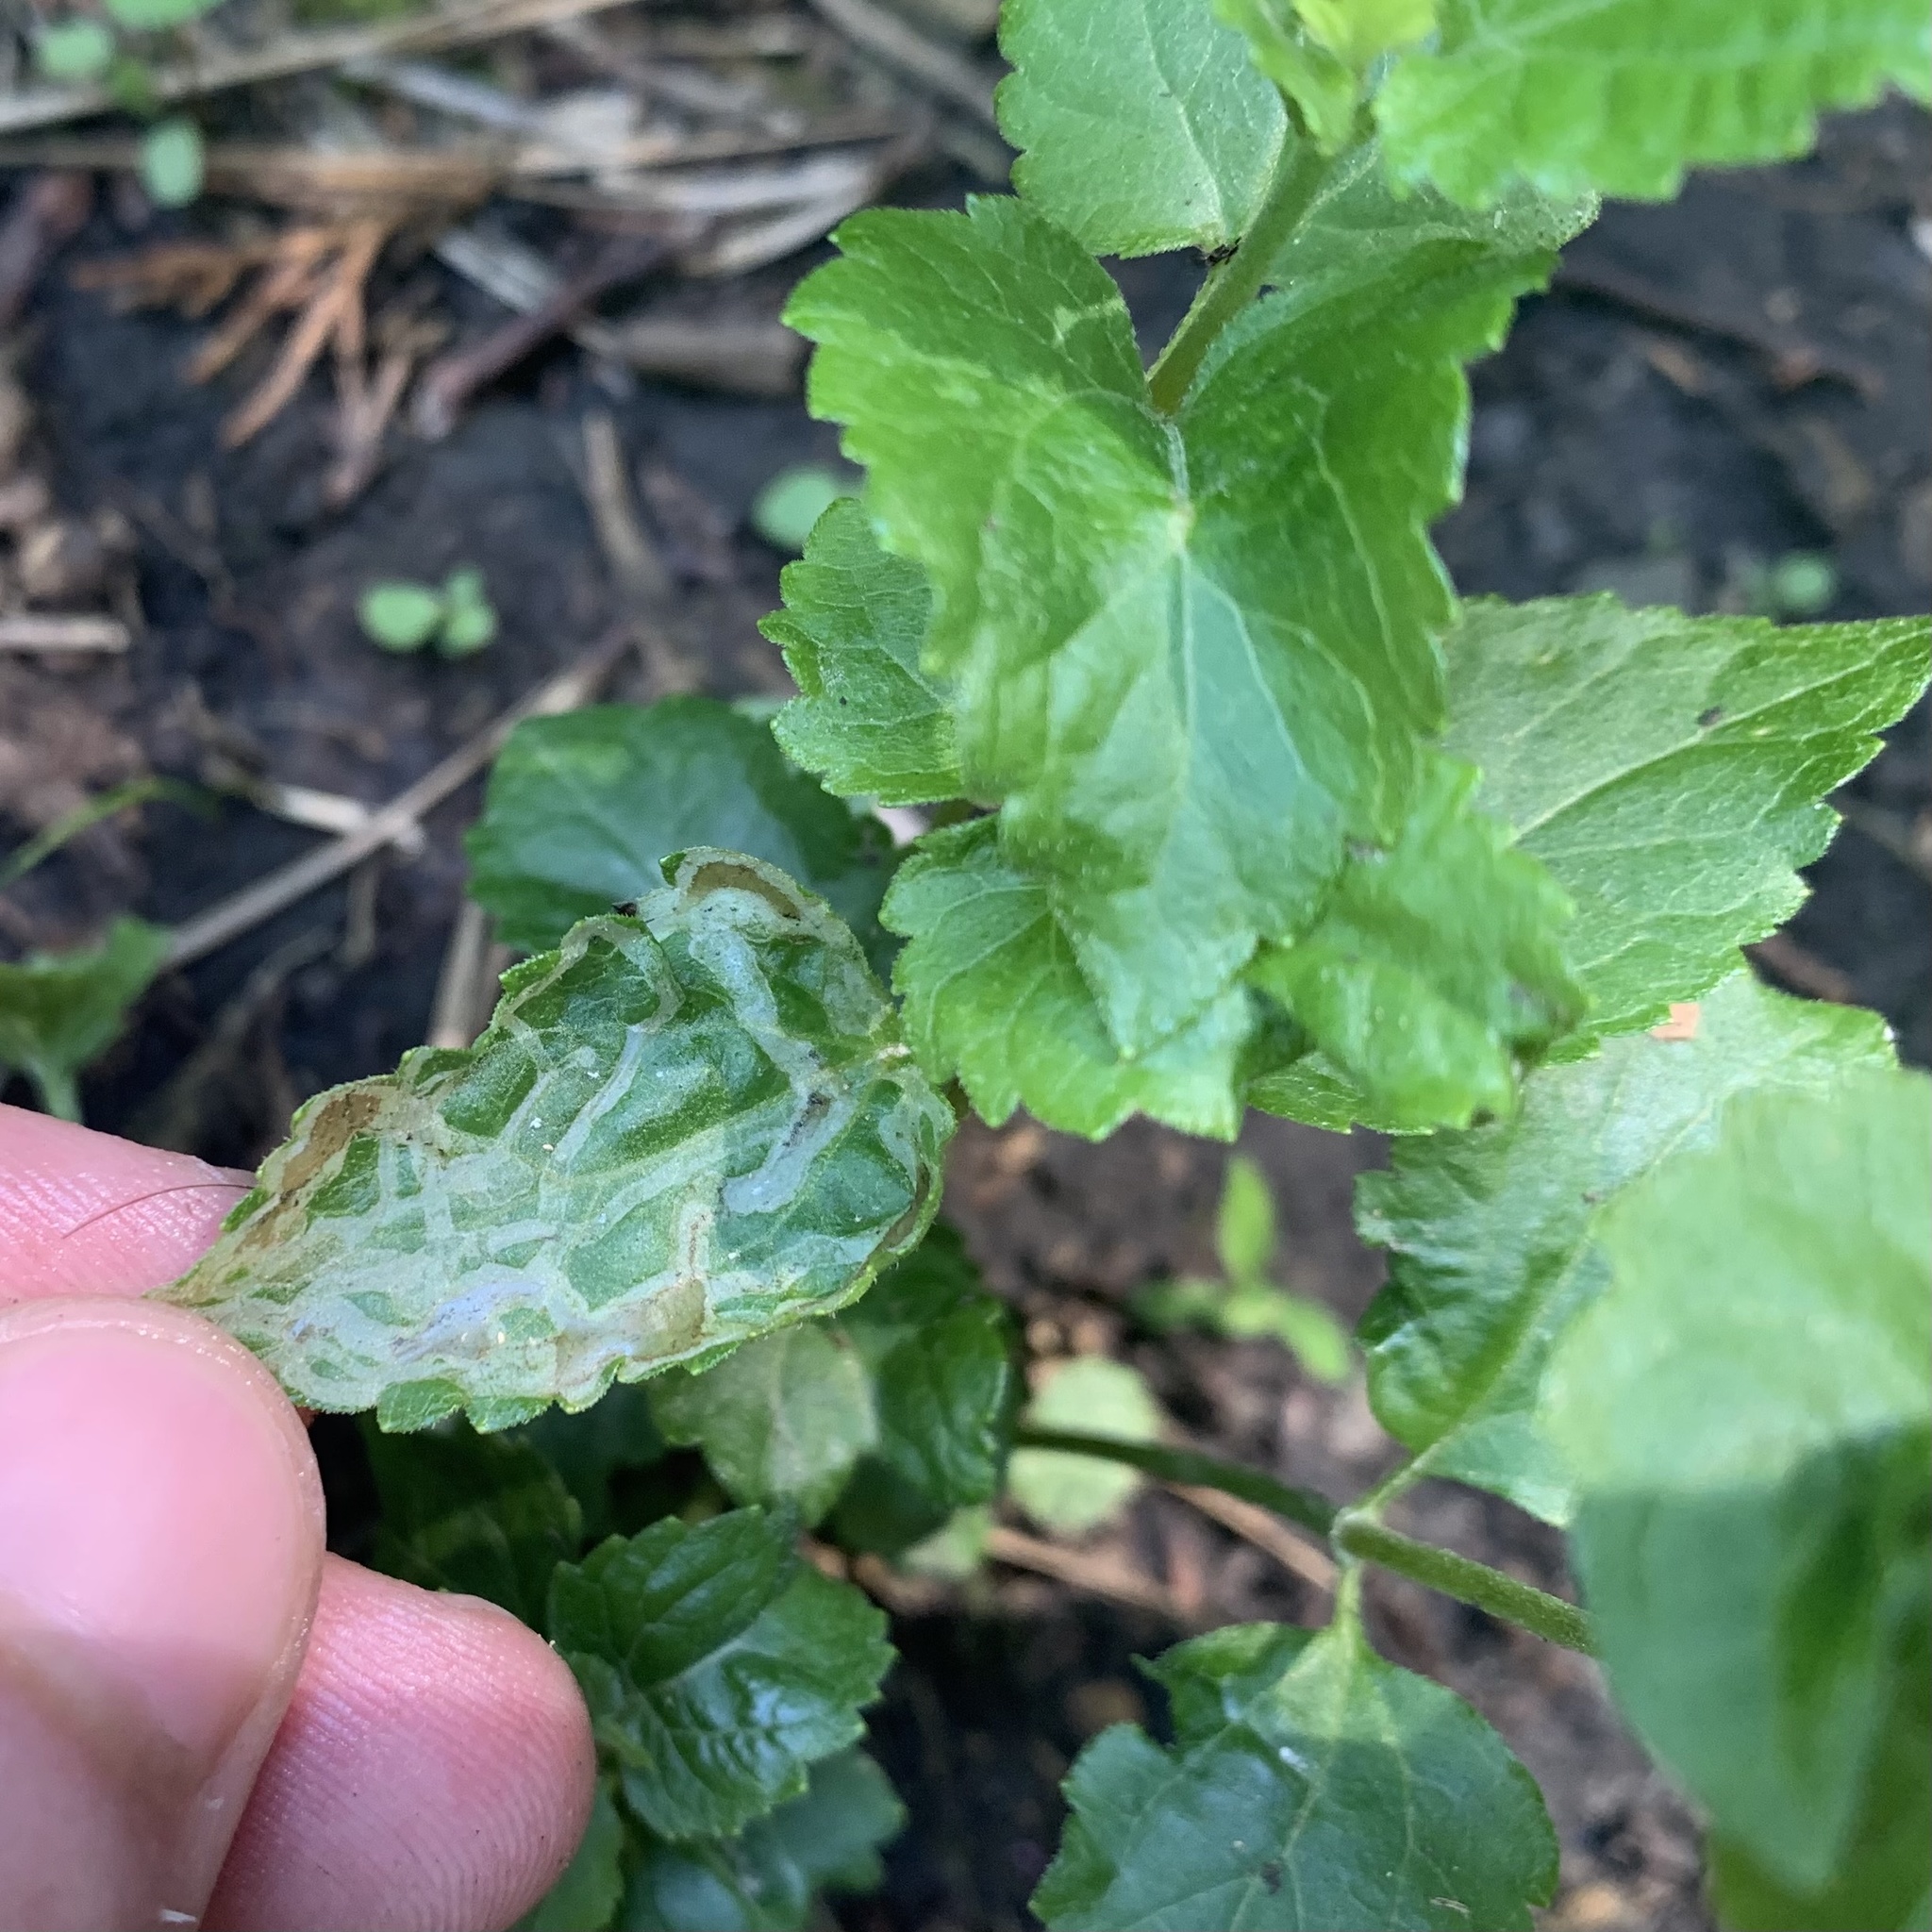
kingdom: Plantae
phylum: Tracheophyta
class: Magnoliopsida
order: Asterales
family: Asteraceae
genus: Ageratina
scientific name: Ageratina aromatica
